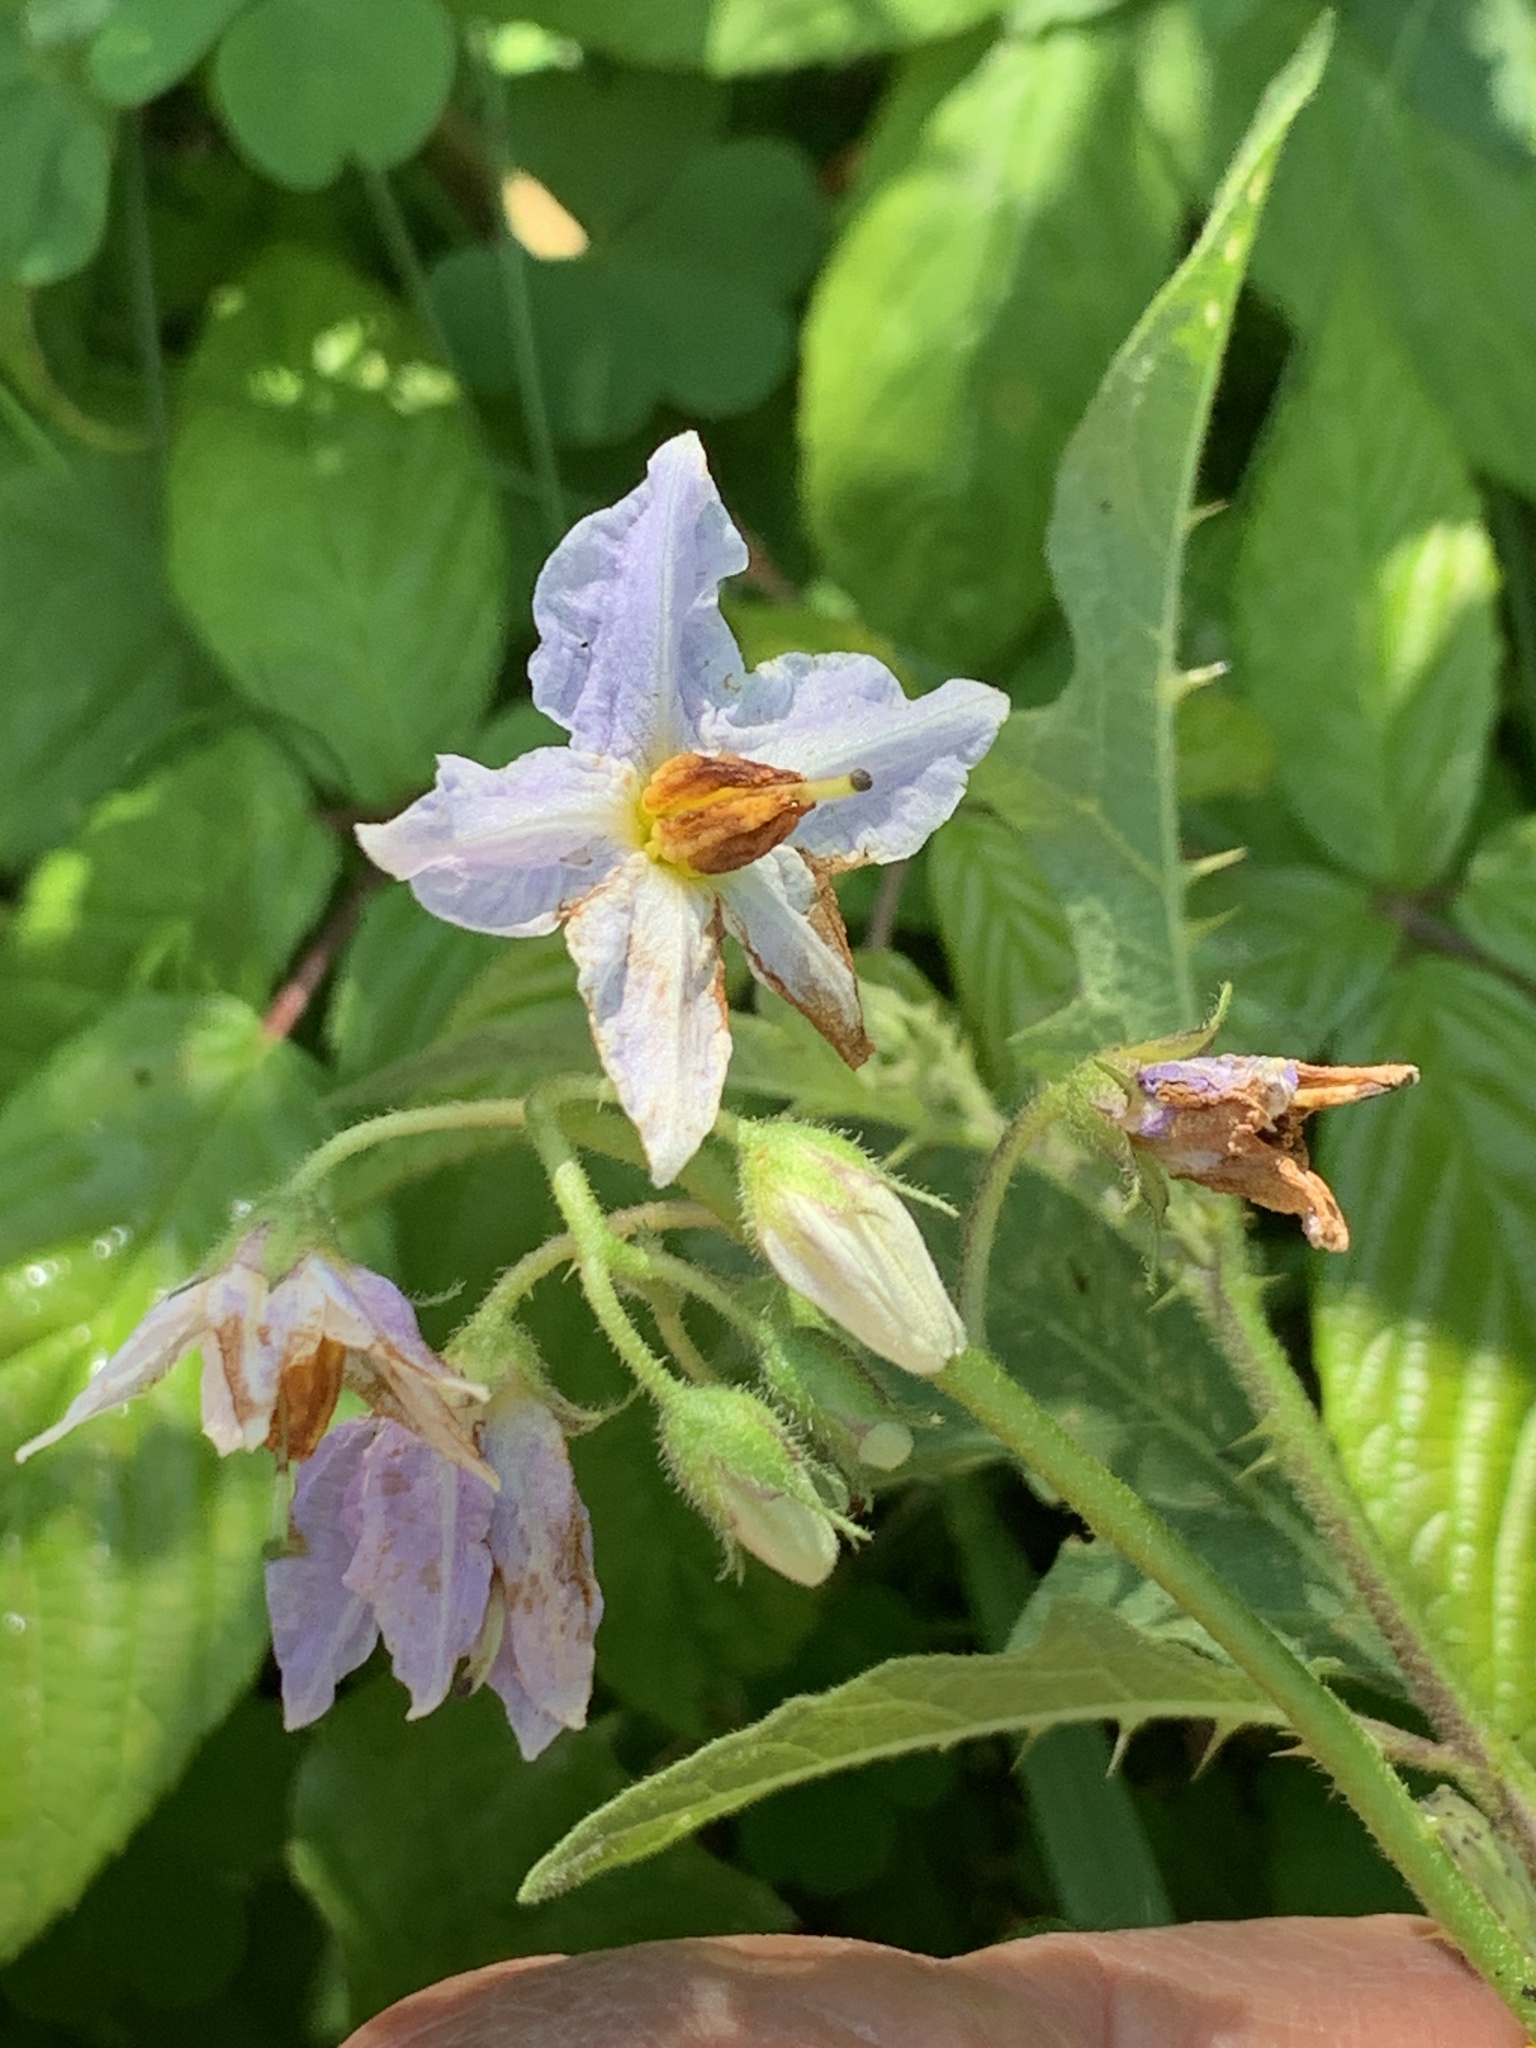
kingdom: Plantae
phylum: Tracheophyta
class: Magnoliopsida
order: Solanales
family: Solanaceae
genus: Solanum
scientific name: Solanum carolinense
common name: Horse-nettle
